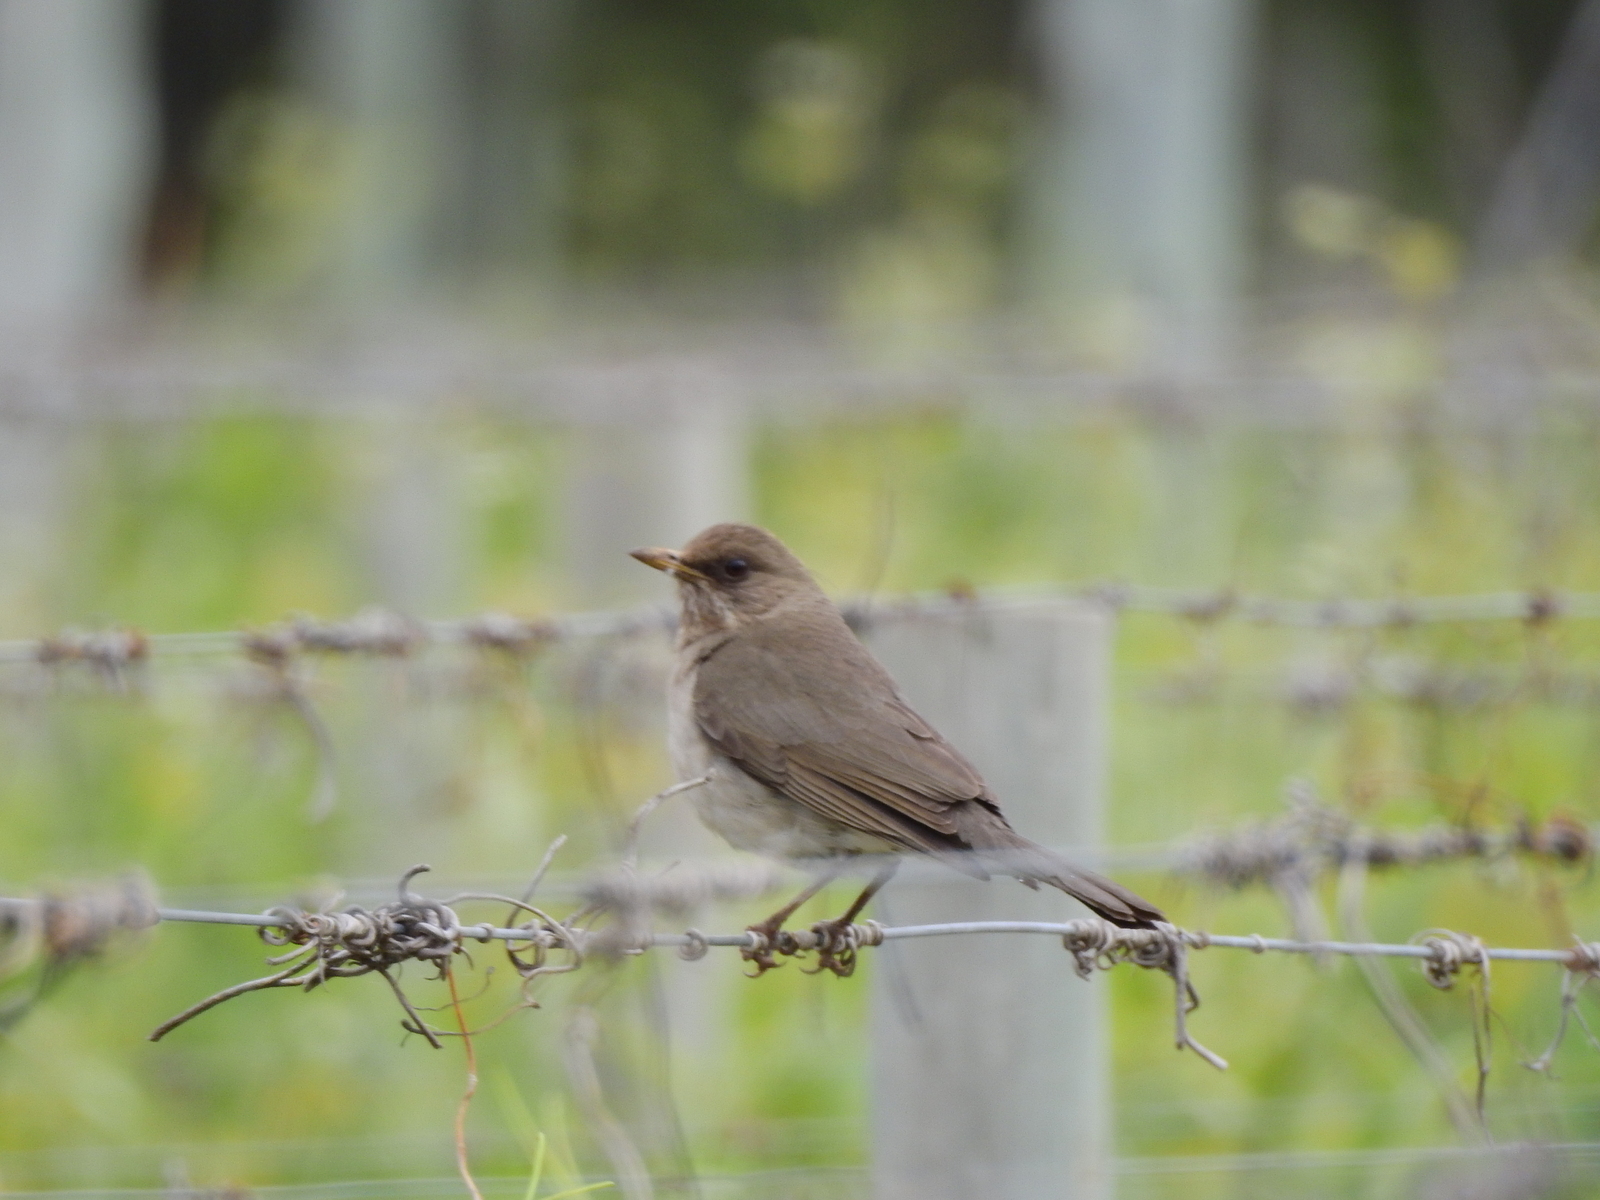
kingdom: Animalia
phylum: Chordata
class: Aves
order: Passeriformes
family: Turdidae
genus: Turdus
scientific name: Turdus amaurochalinus
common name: Creamy-bellied thrush
